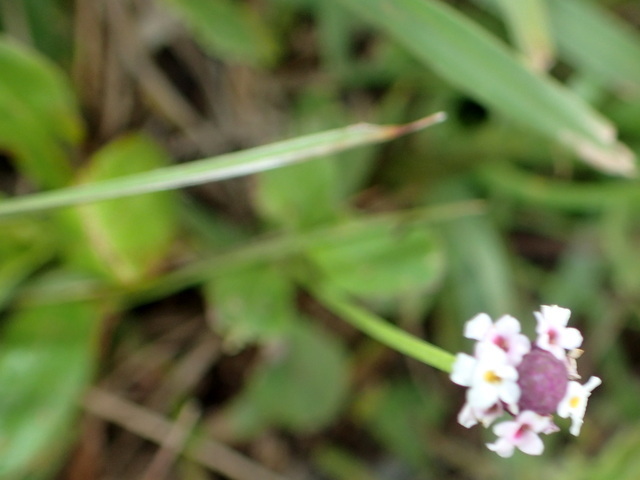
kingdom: Plantae
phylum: Tracheophyta
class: Magnoliopsida
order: Lamiales
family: Verbenaceae
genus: Phyla
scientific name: Phyla nodiflora
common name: Frogfruit
